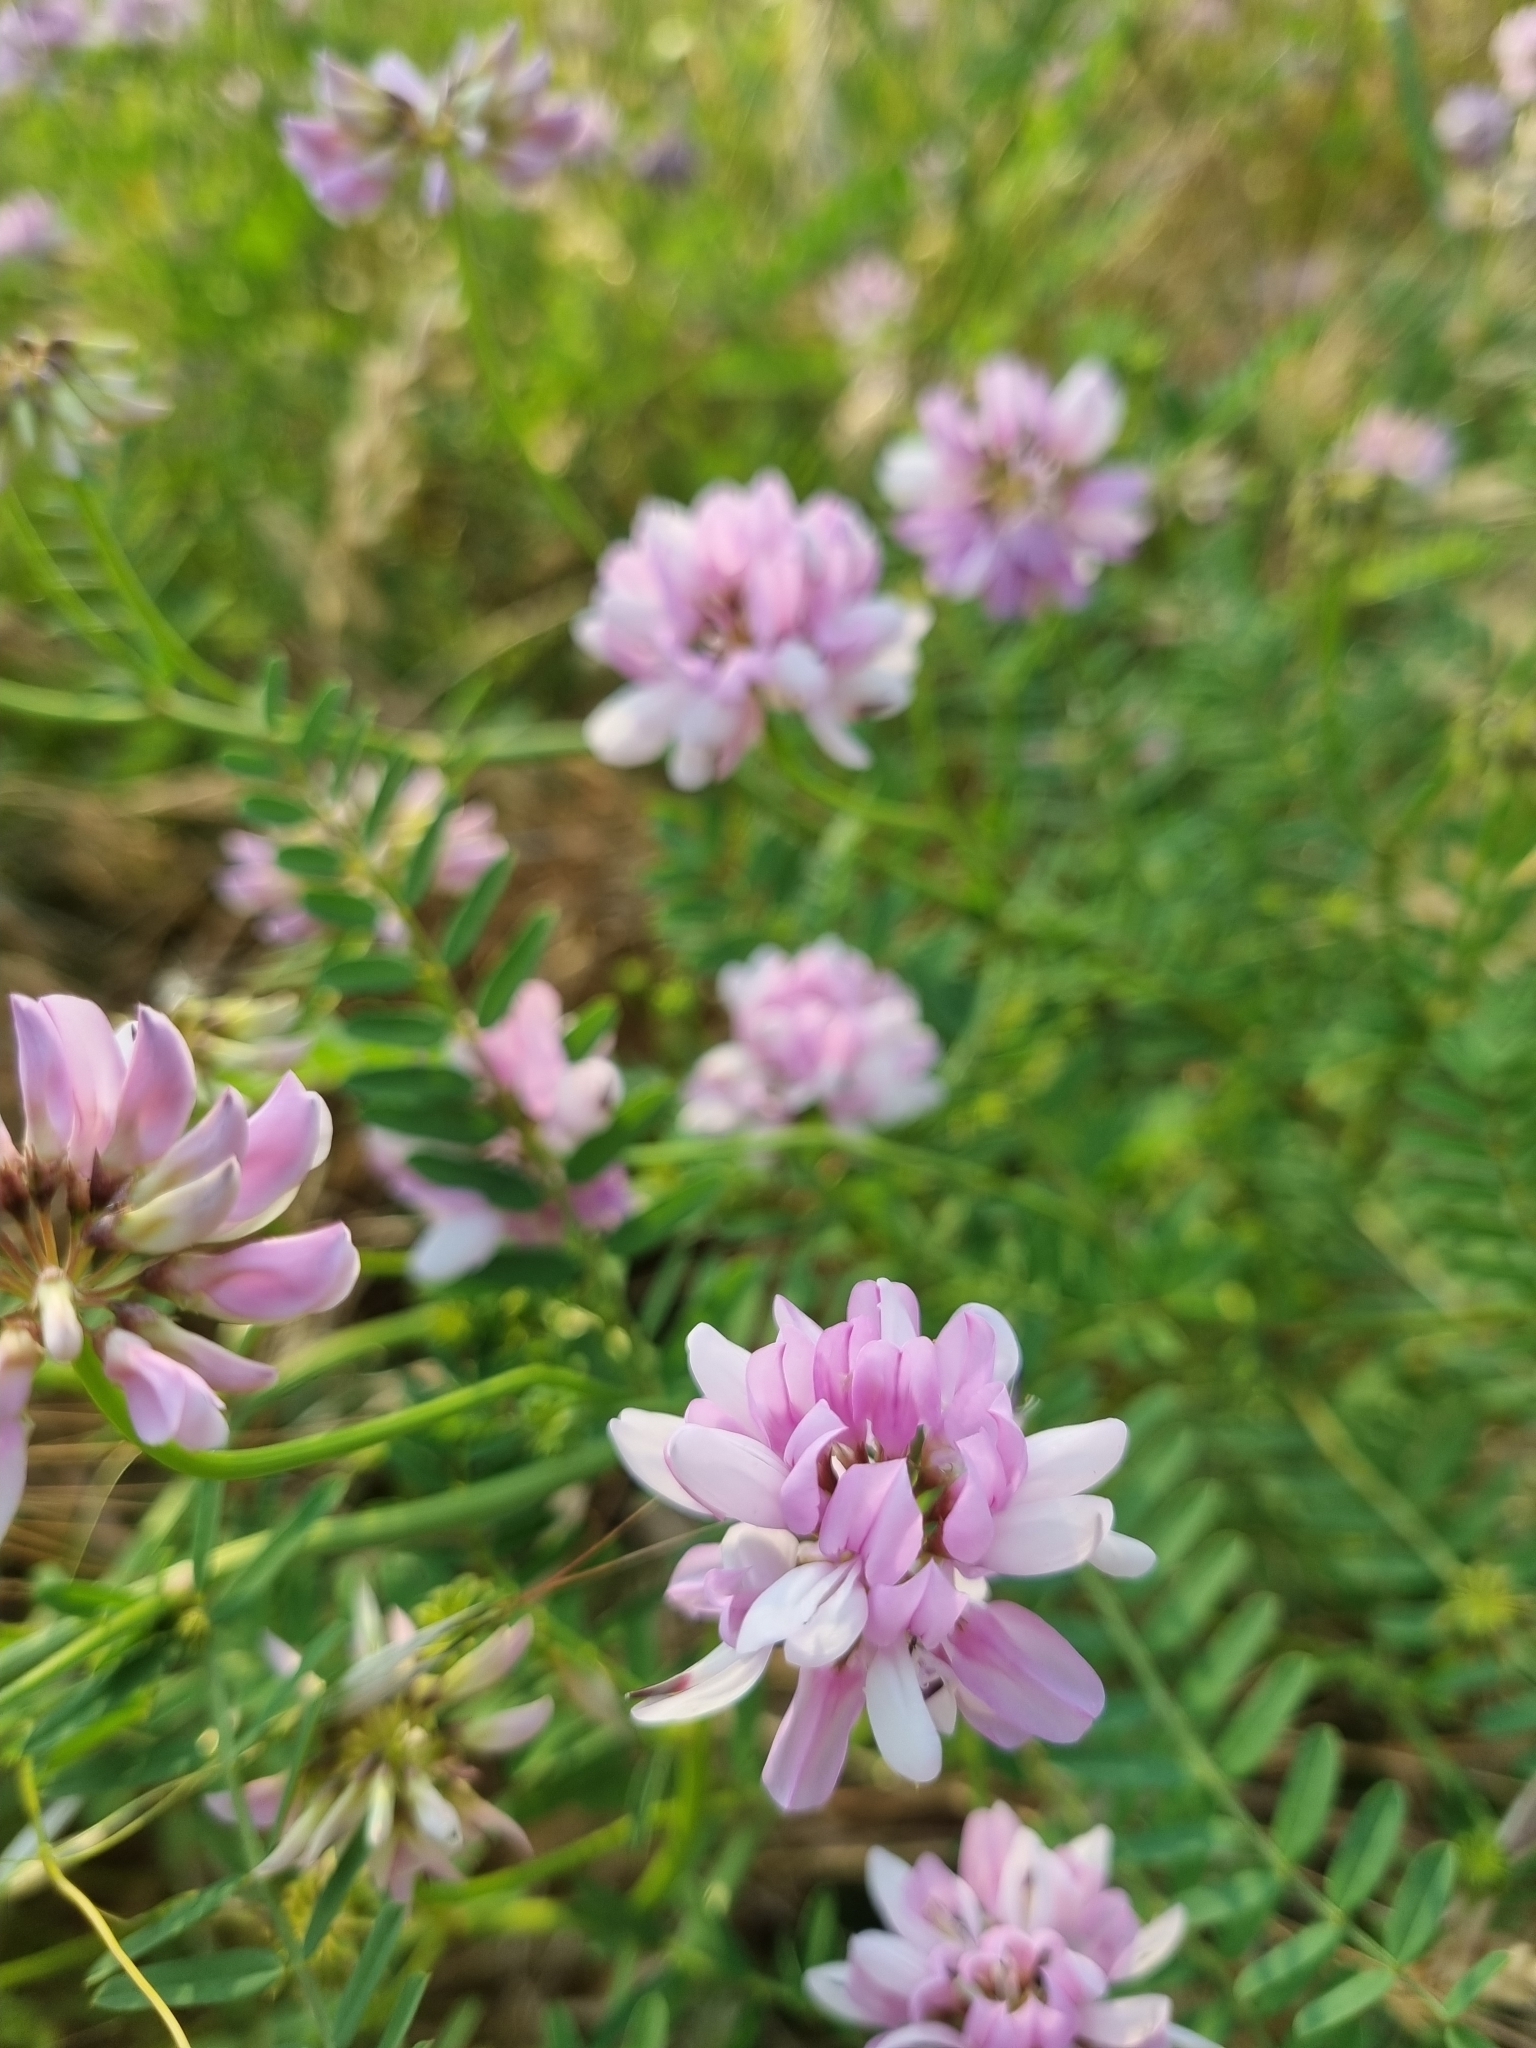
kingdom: Plantae
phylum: Tracheophyta
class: Magnoliopsida
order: Fabales
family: Fabaceae
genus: Coronilla
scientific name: Coronilla varia
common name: Crownvetch
